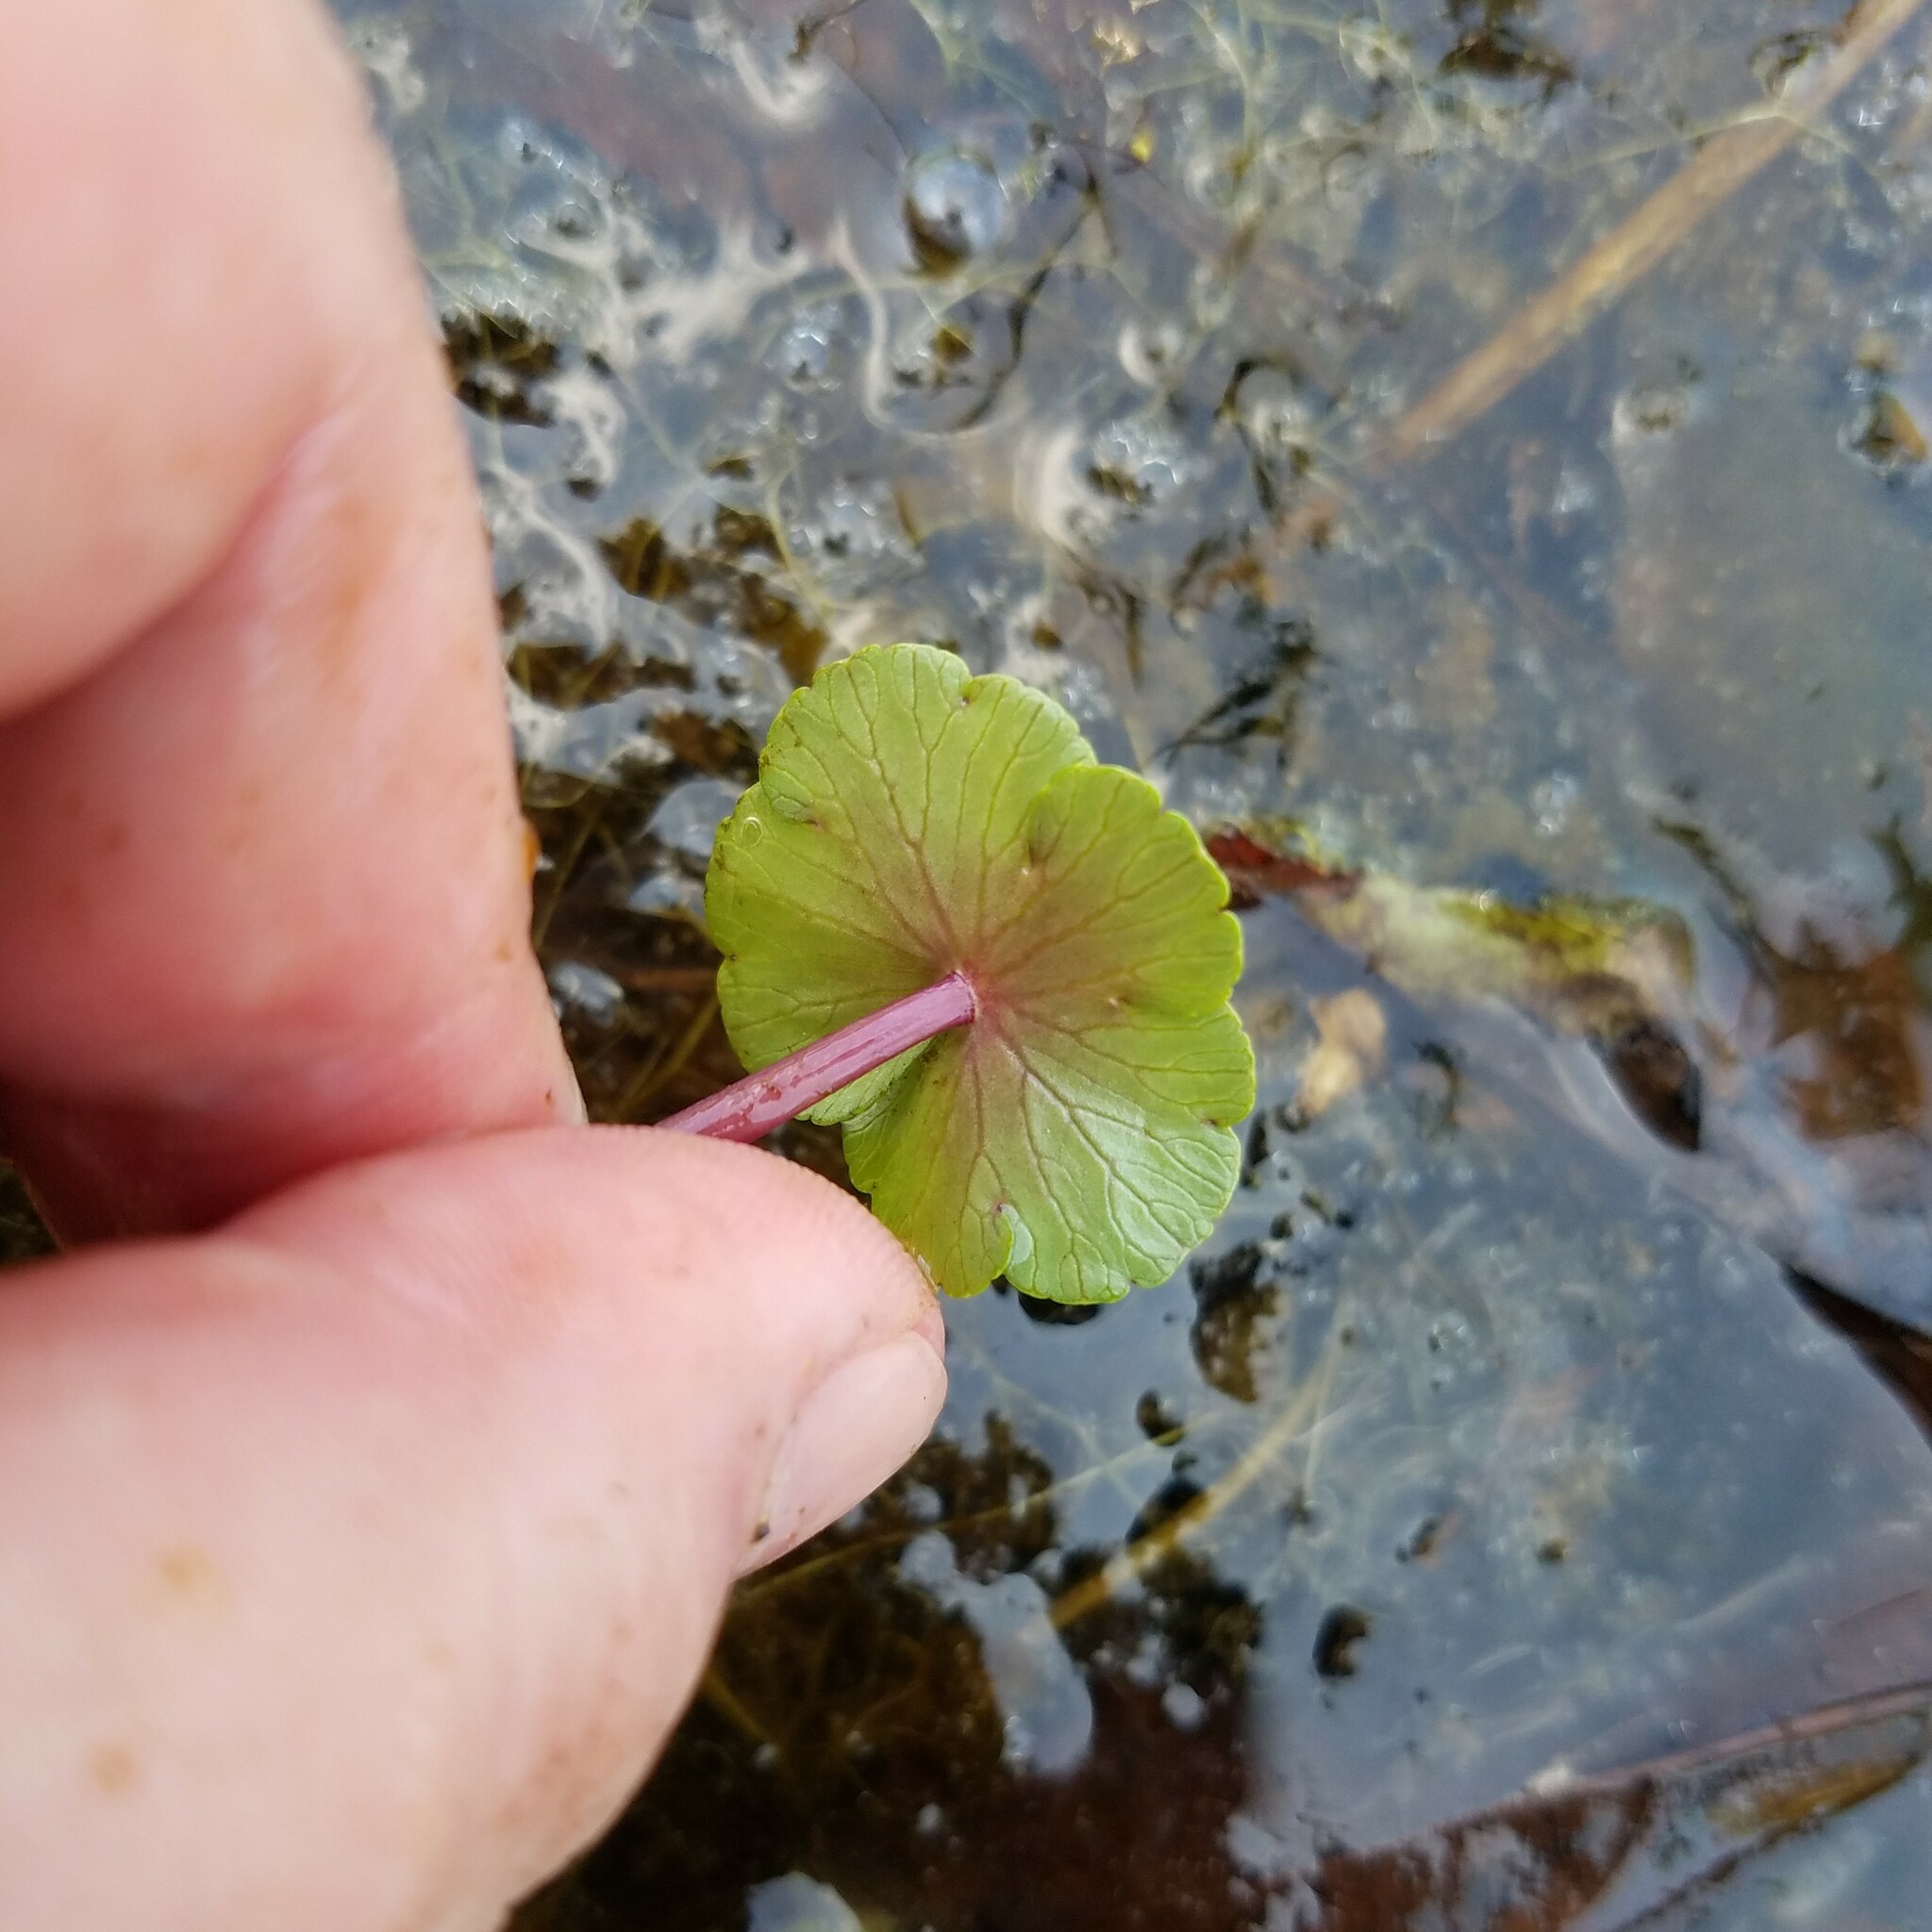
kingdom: Plantae
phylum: Tracheophyta
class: Magnoliopsida
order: Apiales
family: Araliaceae
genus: Hydrocotyle
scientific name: Hydrocotyle ranunculoides
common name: Floating pennywort
